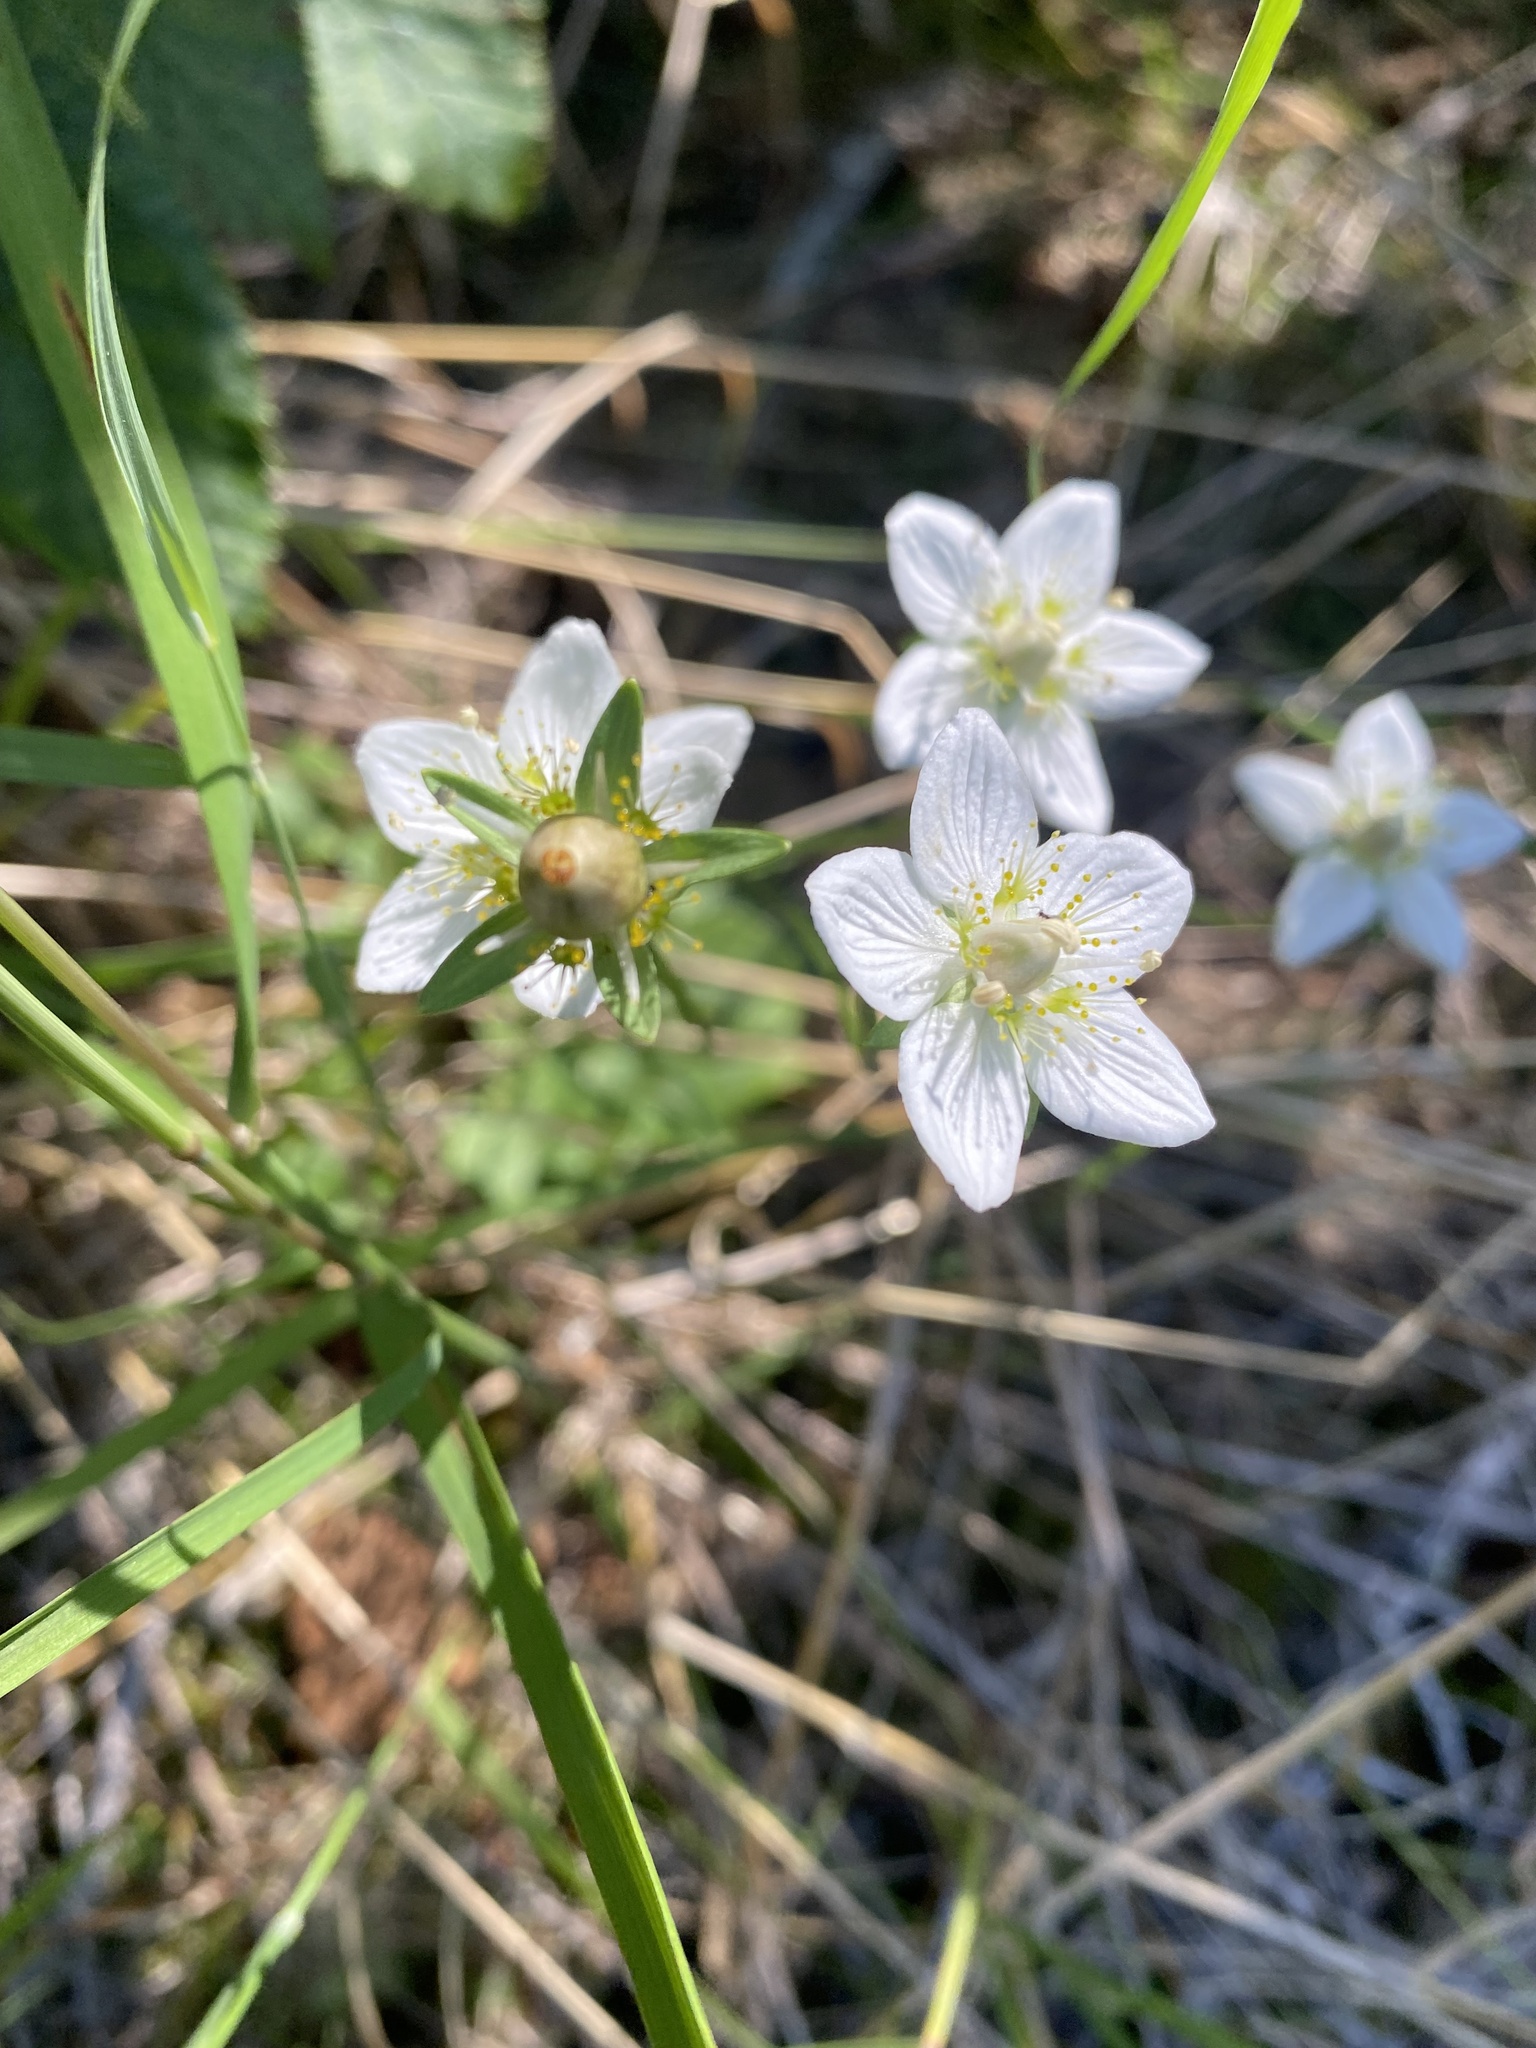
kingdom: Plantae
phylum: Tracheophyta
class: Magnoliopsida
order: Celastrales
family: Parnassiaceae
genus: Parnassia
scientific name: Parnassia palustris
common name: Grass-of-parnassus
